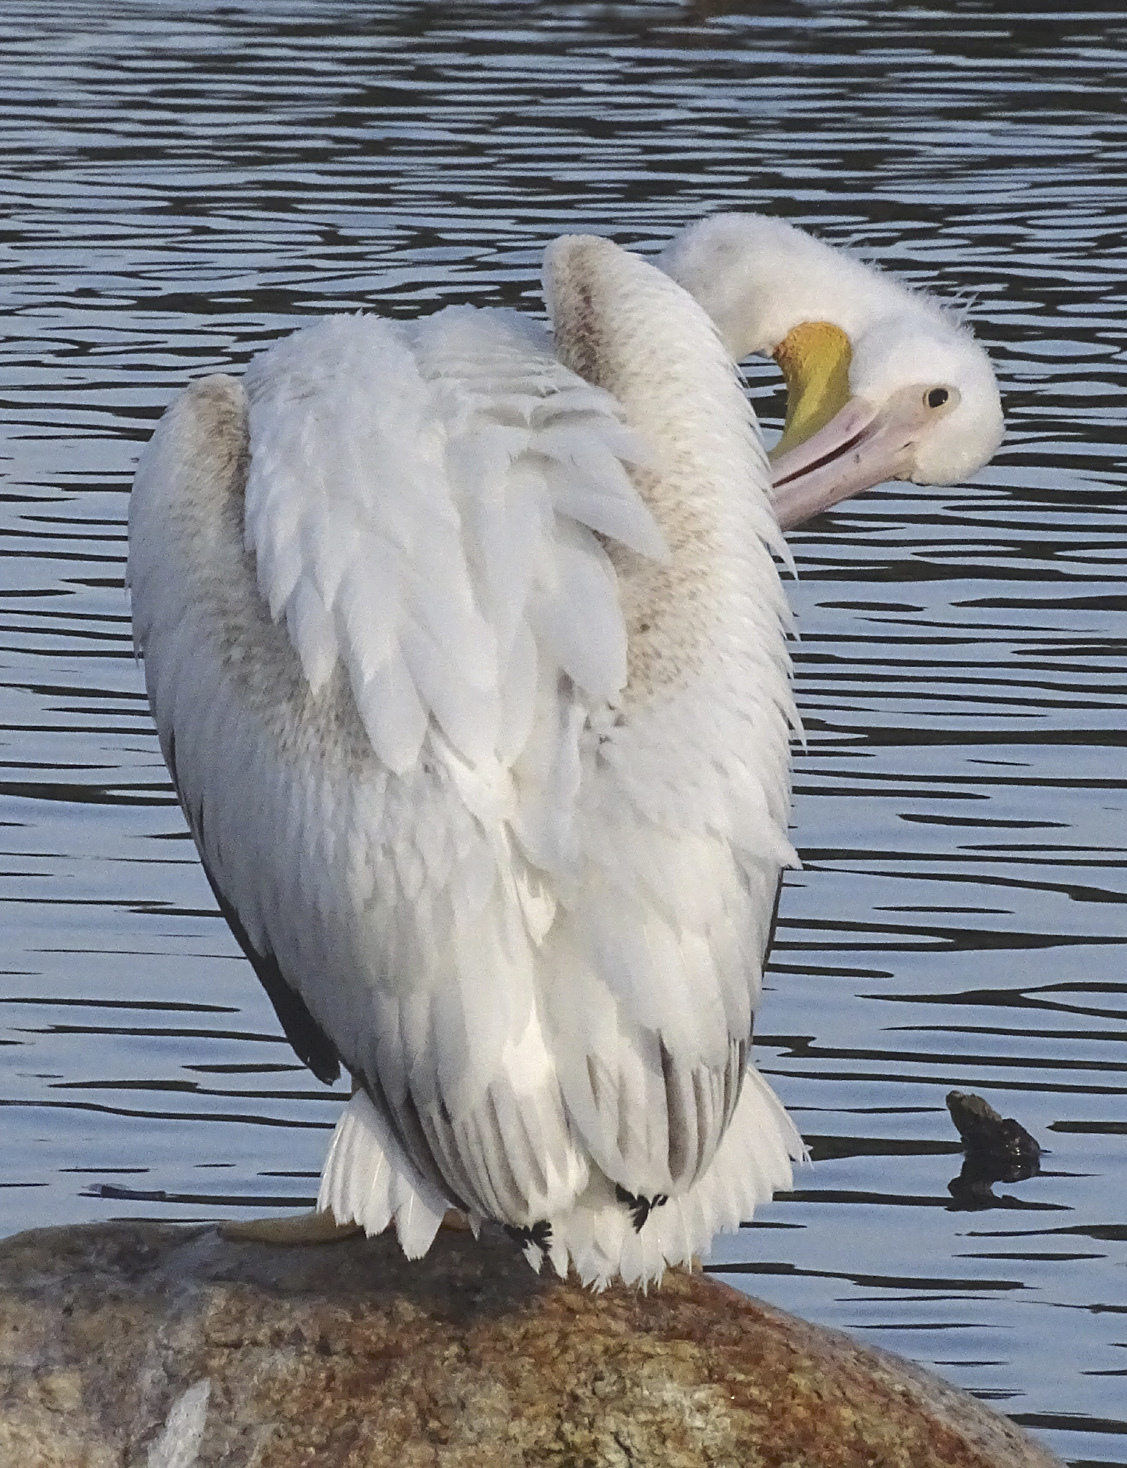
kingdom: Animalia
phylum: Chordata
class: Aves
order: Pelecaniformes
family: Pelecanidae
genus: Pelecanus
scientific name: Pelecanus erythrorhynchos
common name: American white pelican
